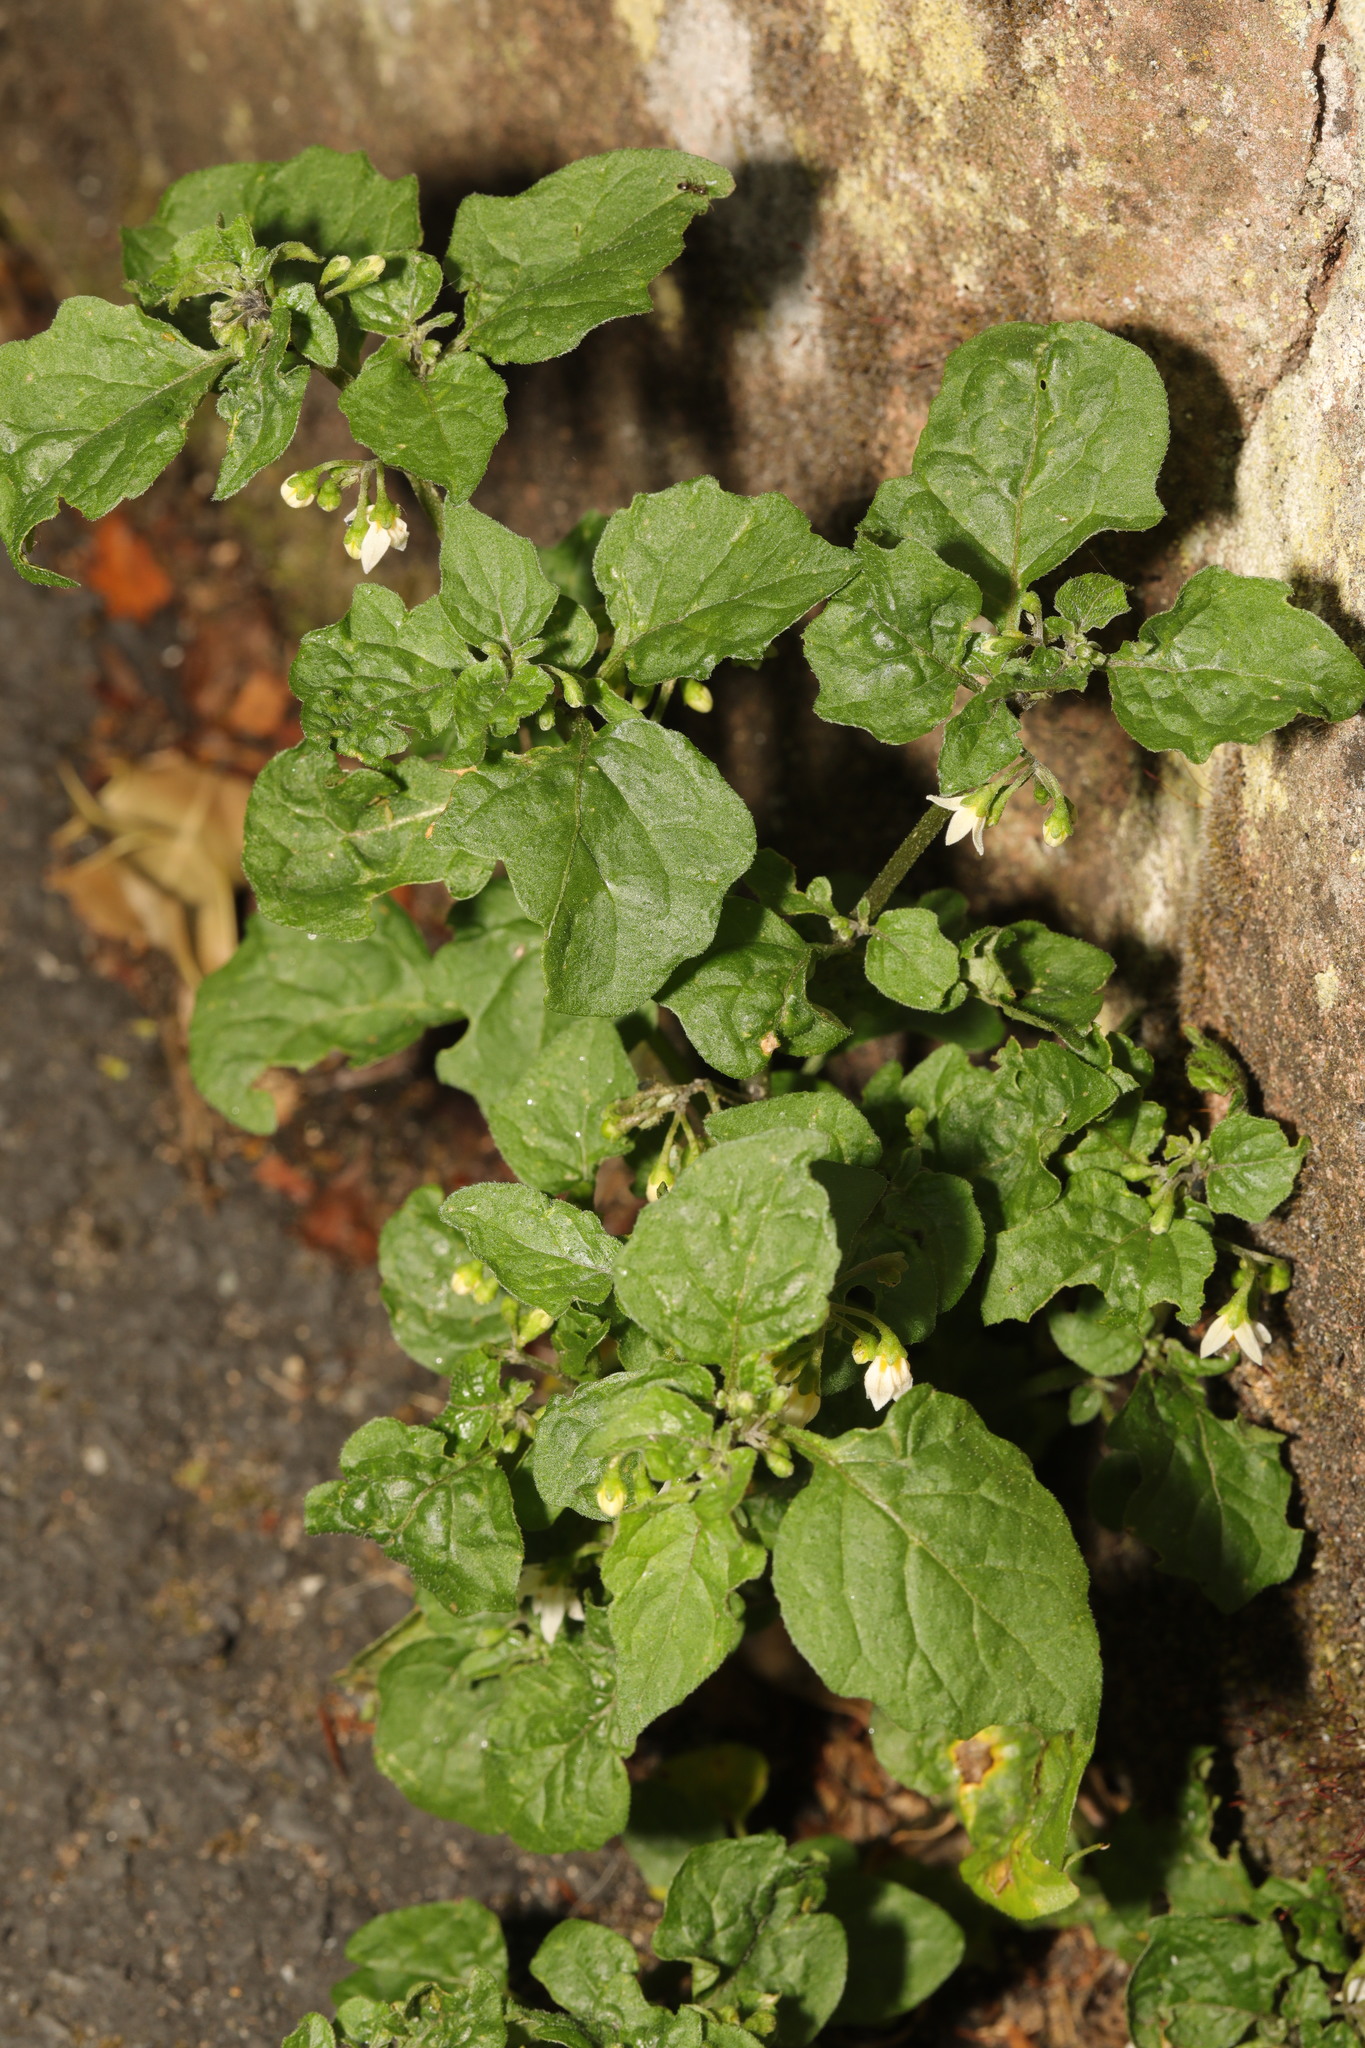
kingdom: Plantae
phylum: Tracheophyta
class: Magnoliopsida
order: Solanales
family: Solanaceae
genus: Solanum
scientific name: Solanum nigrum
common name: Black nightshade
